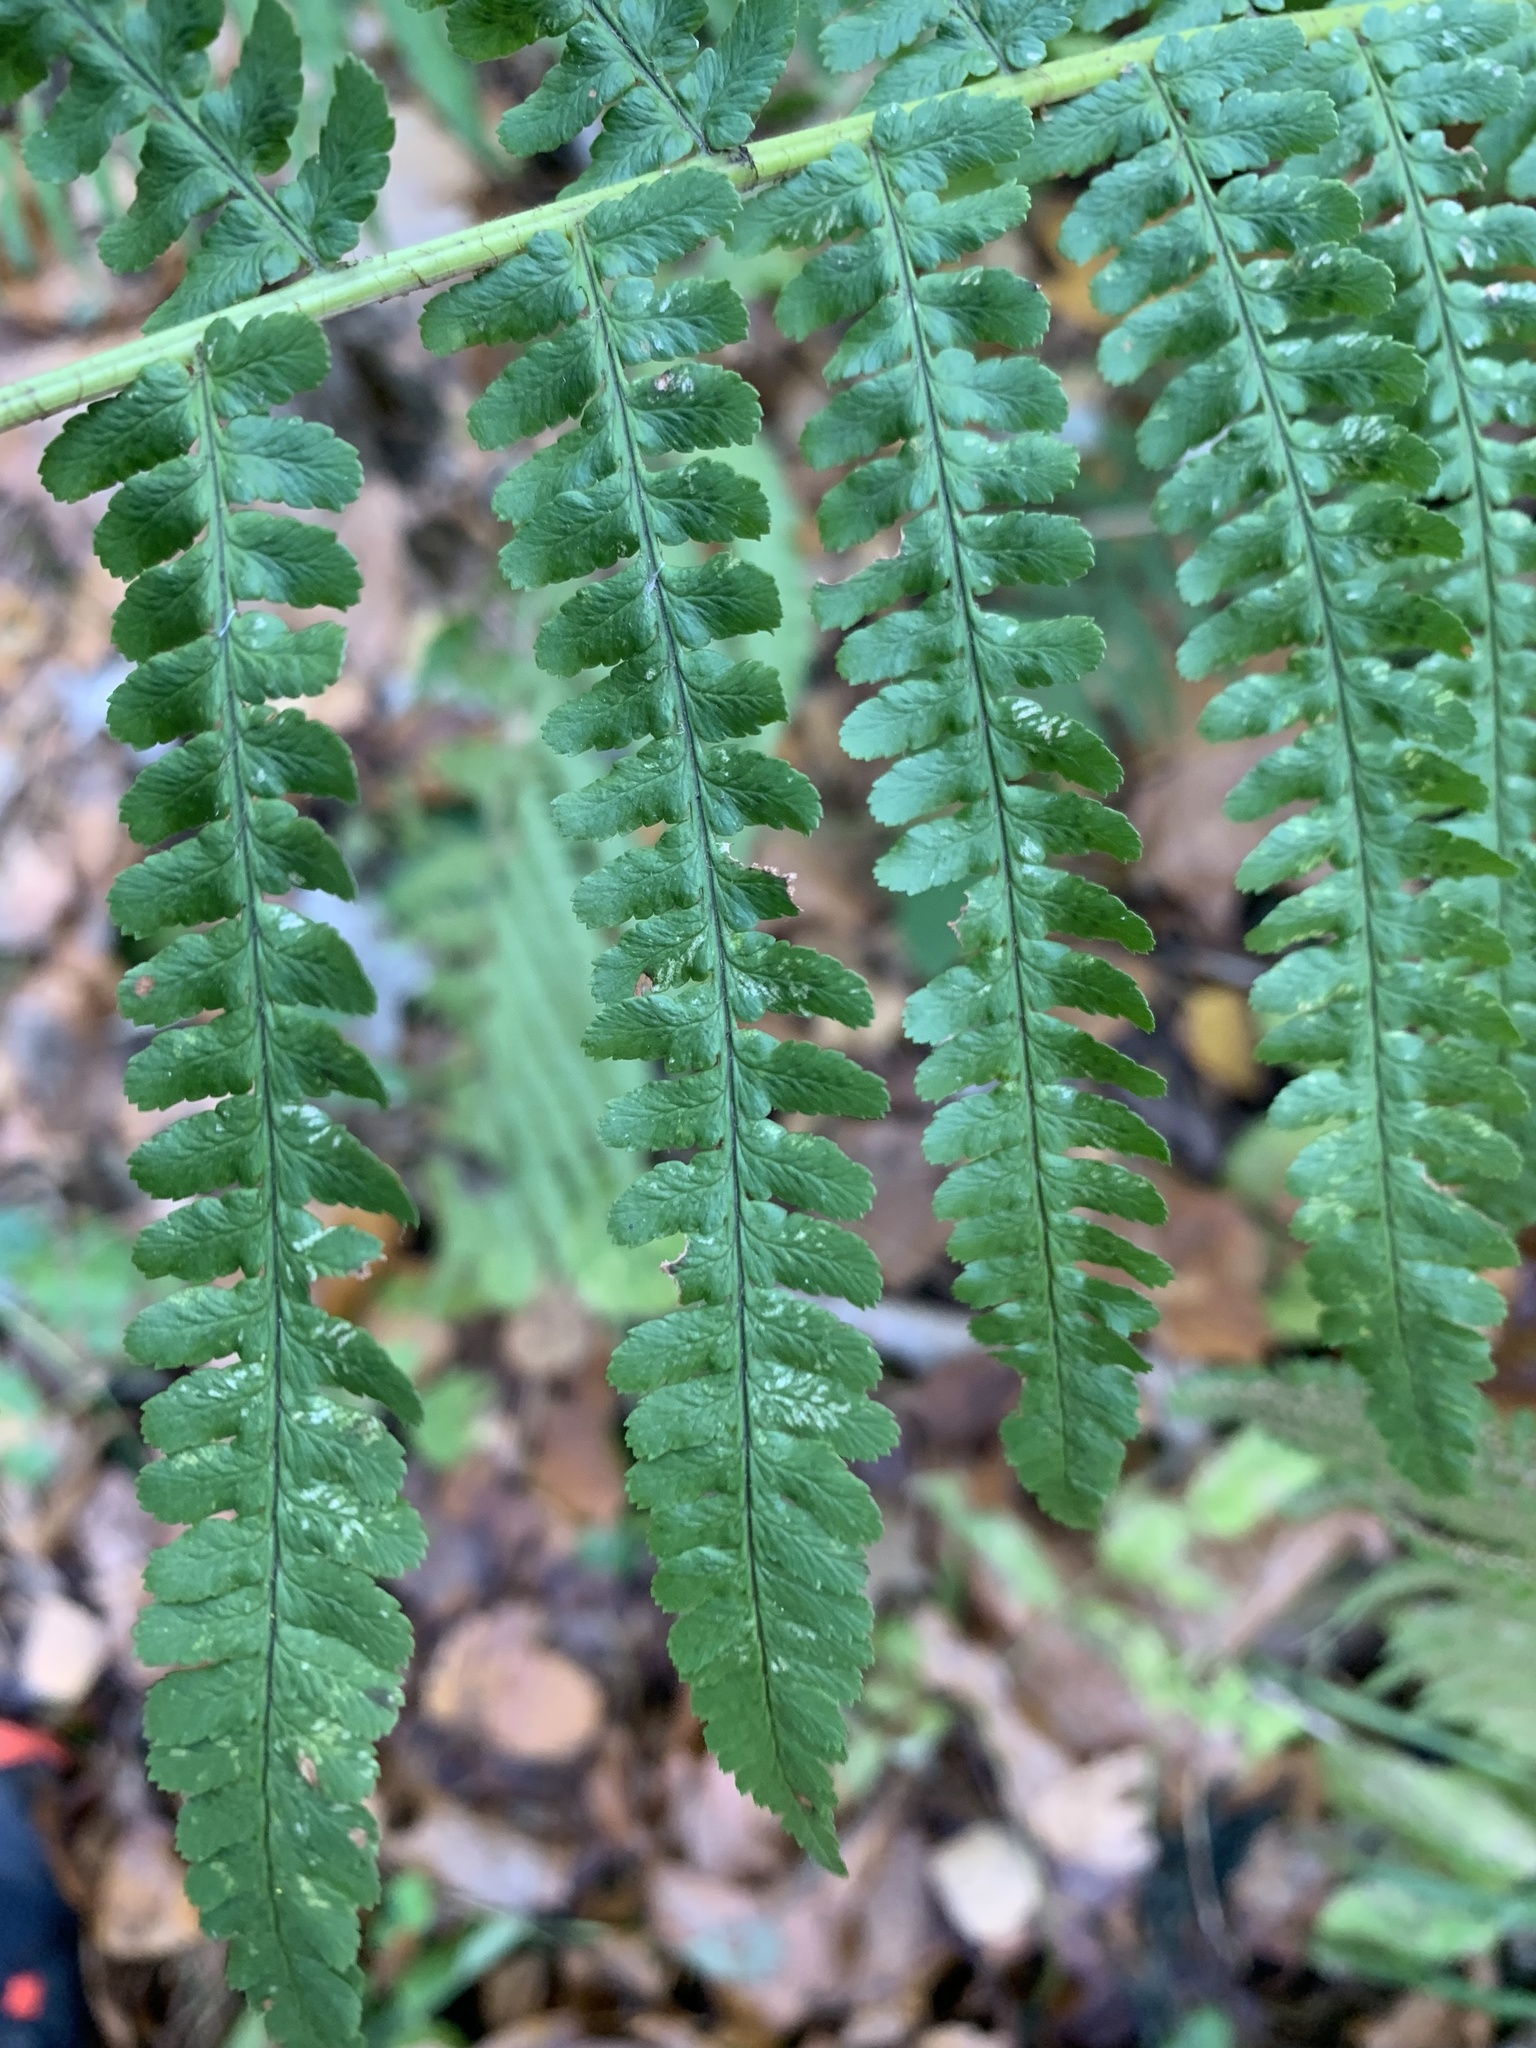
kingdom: Plantae
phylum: Tracheophyta
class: Polypodiopsida
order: Polypodiales
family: Dryopteridaceae
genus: Dryopteris
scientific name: Dryopteris filix-mas
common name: Male fern
